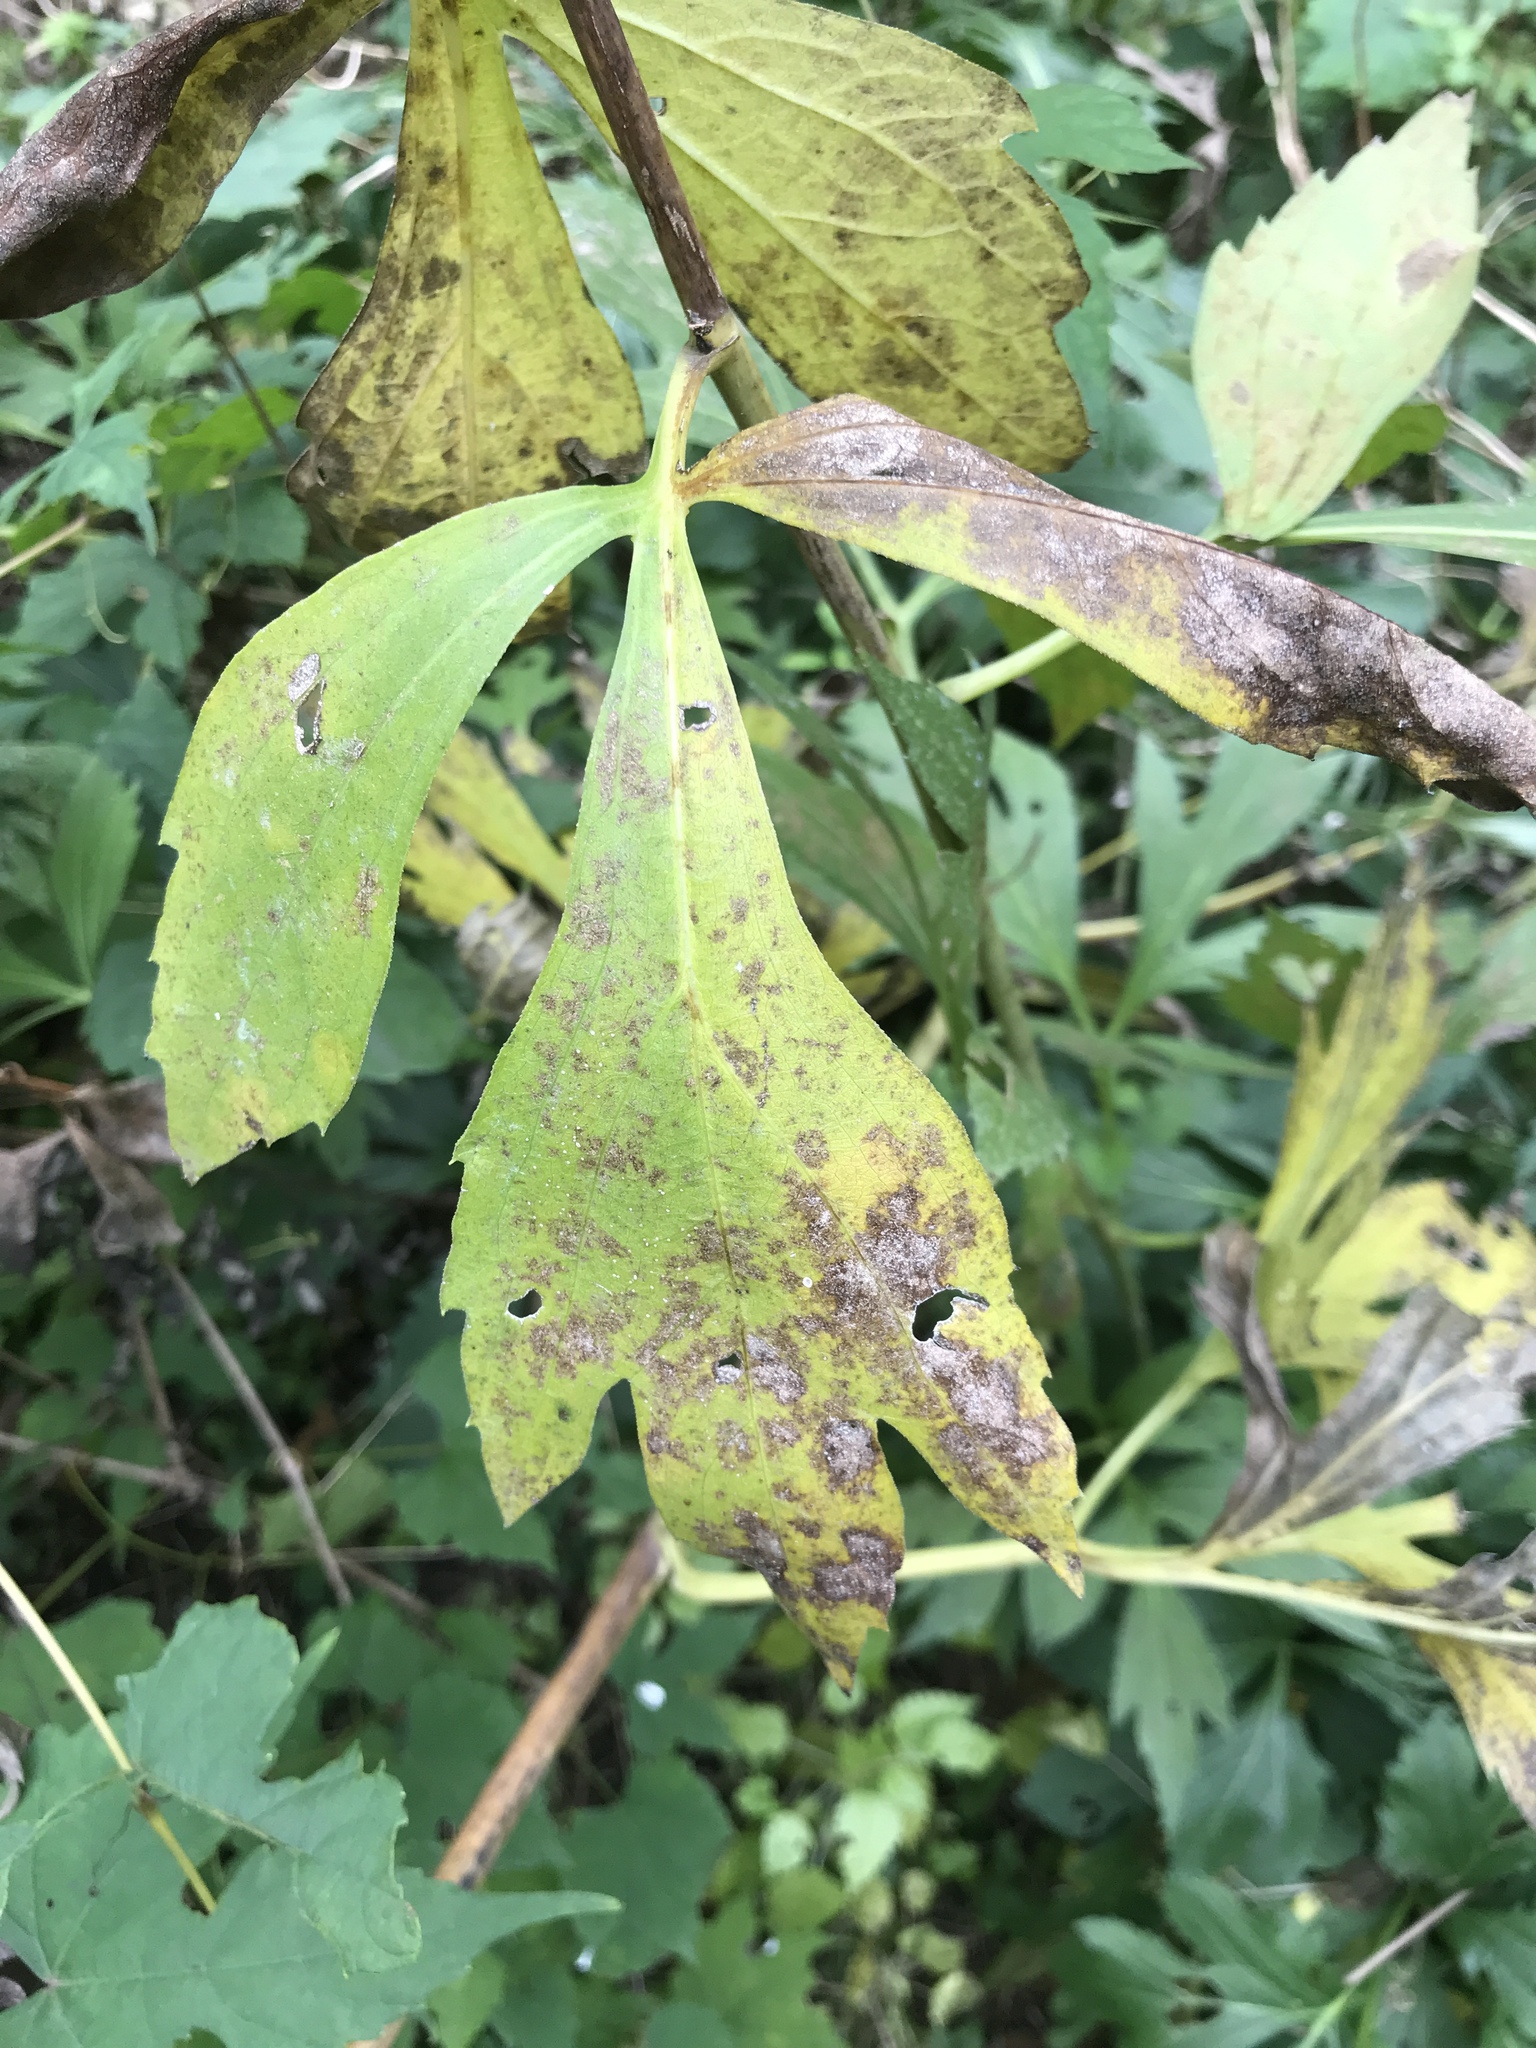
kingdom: Plantae
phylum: Tracheophyta
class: Magnoliopsida
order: Asterales
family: Asteraceae
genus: Rudbeckia
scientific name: Rudbeckia laciniata
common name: Coneflower
